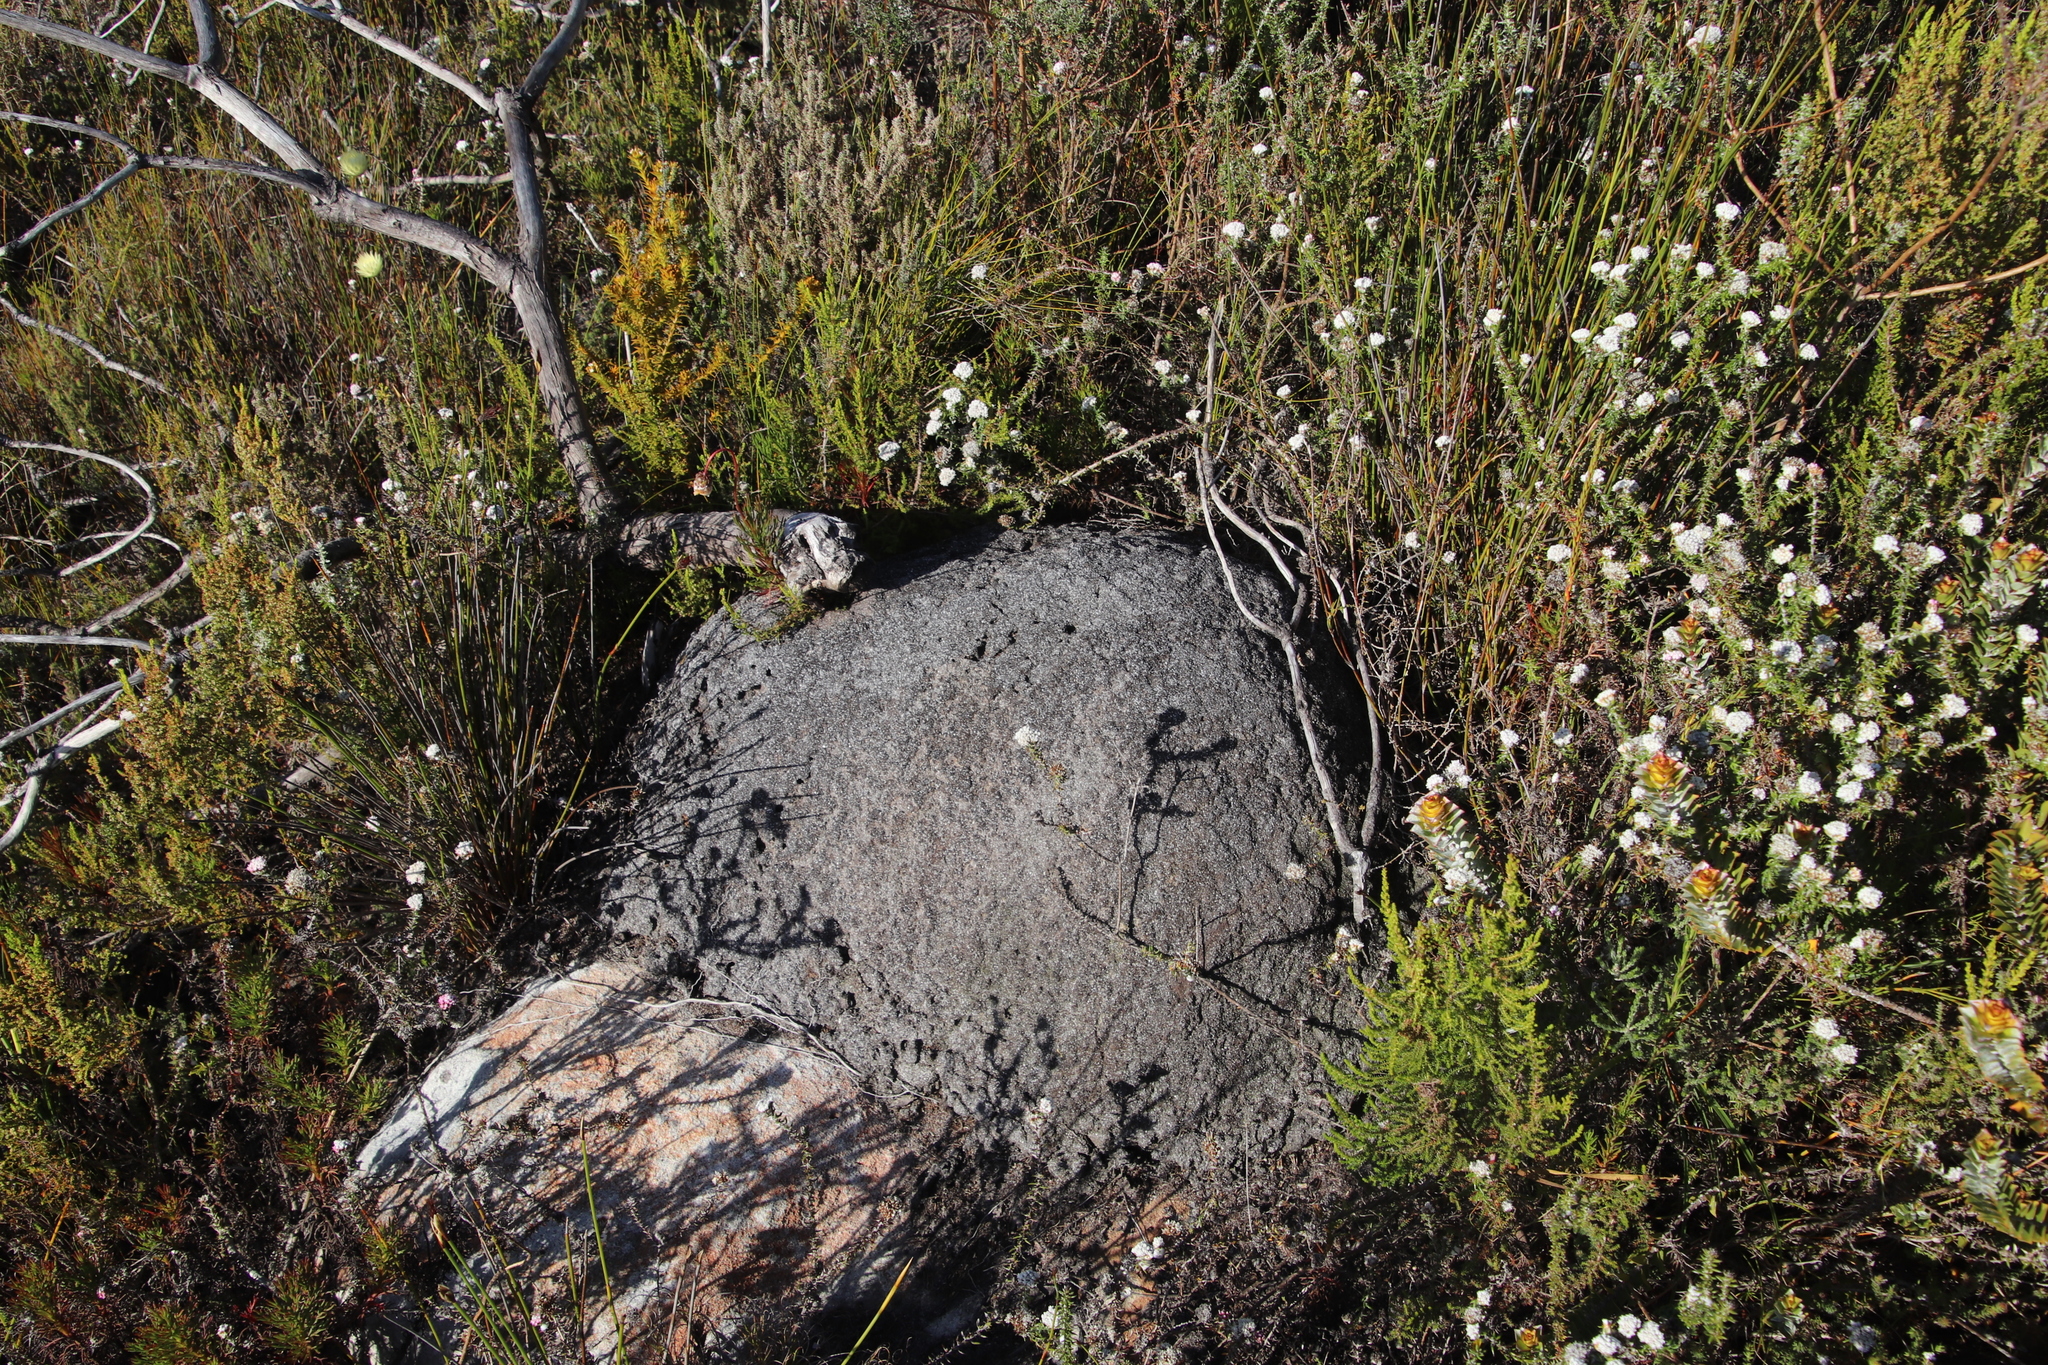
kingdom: Animalia
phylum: Arthropoda
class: Insecta
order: Blattodea
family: Termitidae
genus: Amitermes
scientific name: Amitermes hastatus
